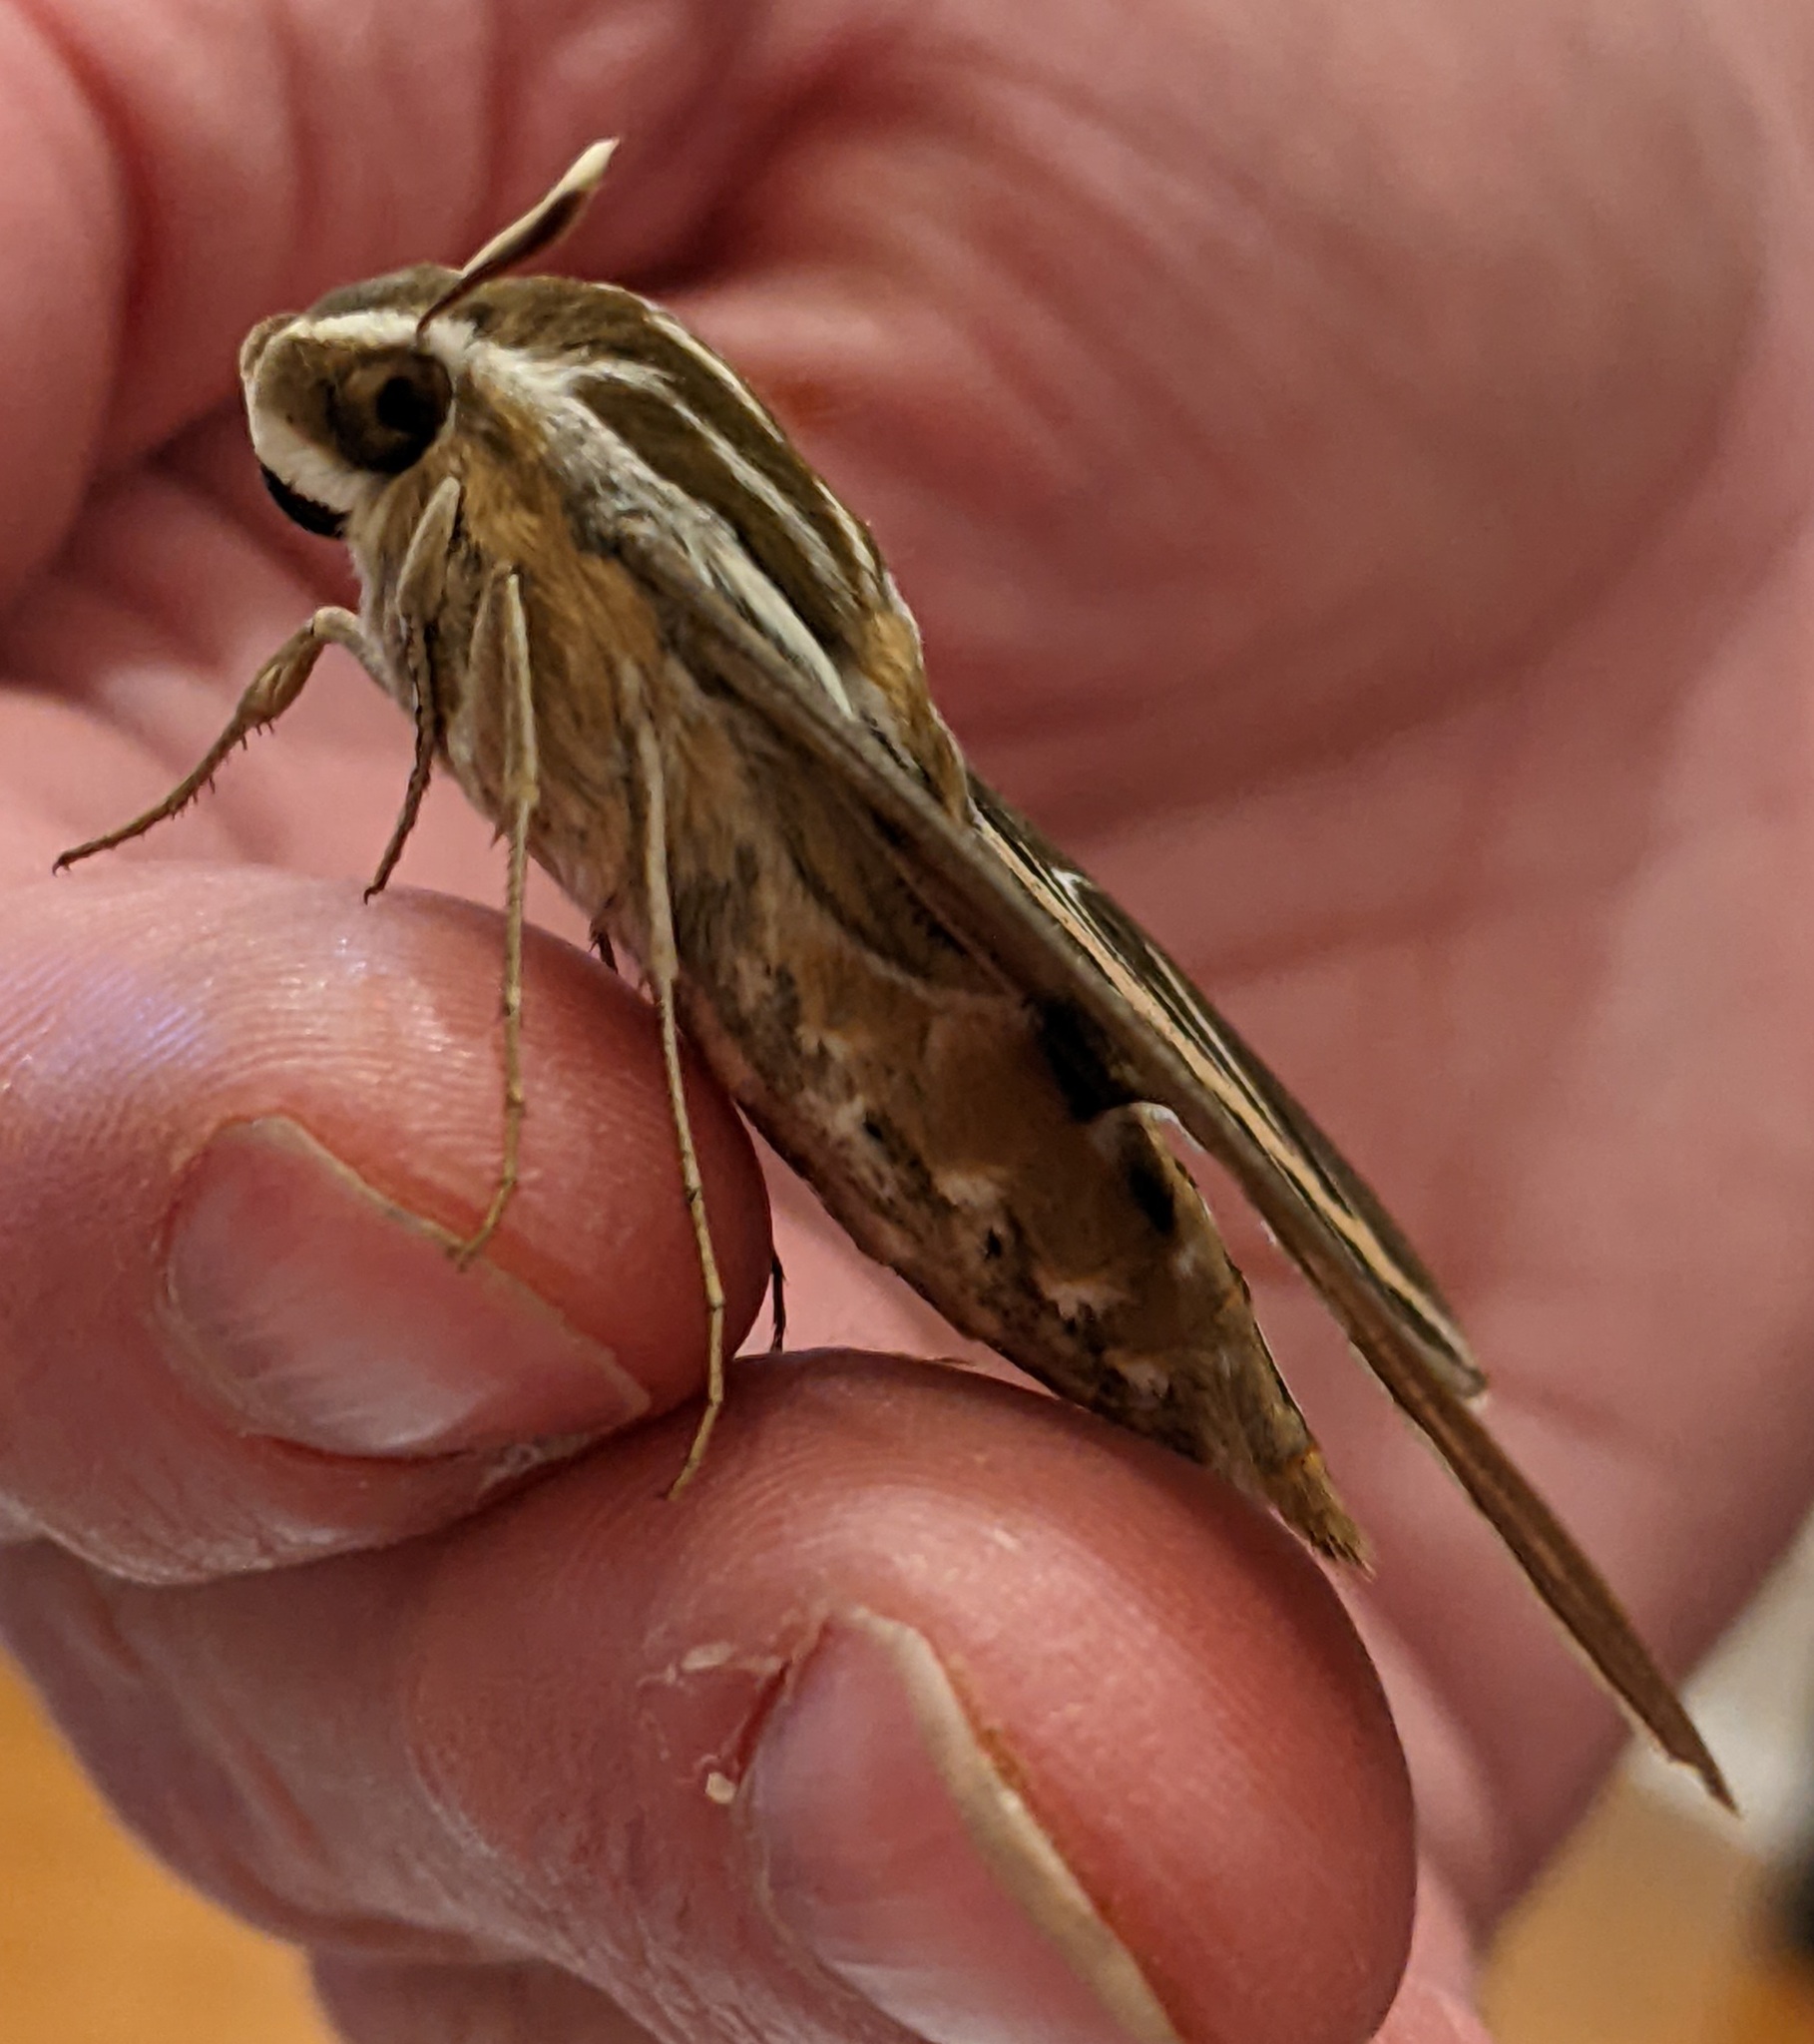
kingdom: Animalia
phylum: Arthropoda
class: Insecta
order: Lepidoptera
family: Sphingidae
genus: Hyles
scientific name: Hyles lineata
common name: White-lined sphinx
